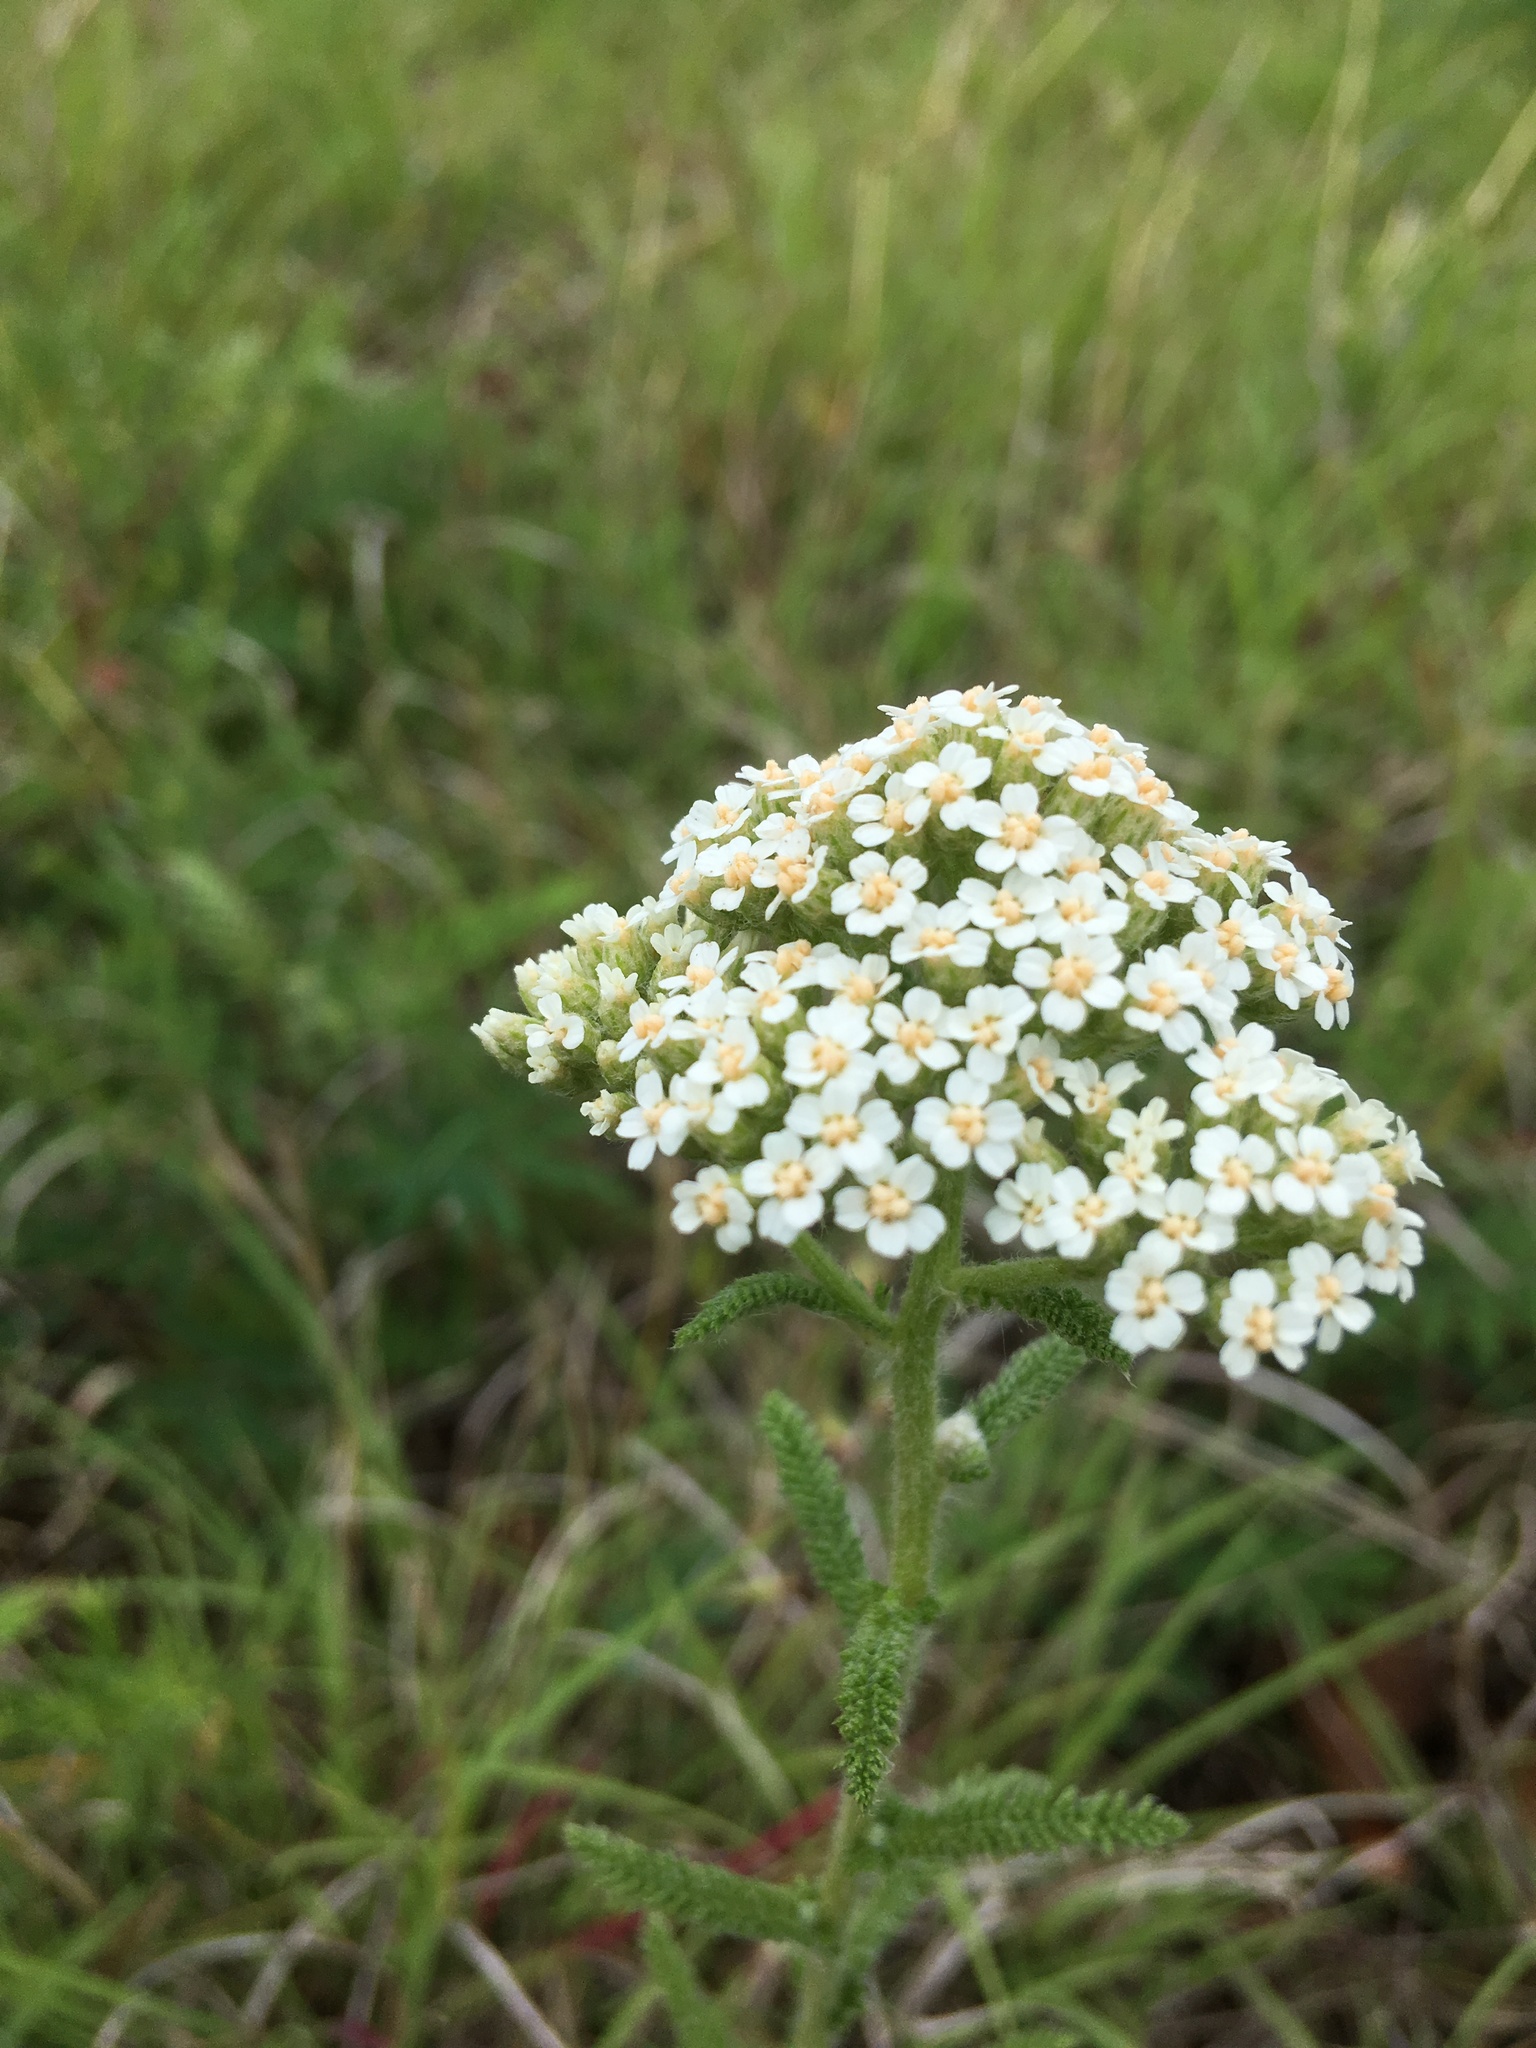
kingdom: Plantae
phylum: Tracheophyta
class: Magnoliopsida
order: Asterales
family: Asteraceae
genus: Achillea
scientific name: Achillea millefolium
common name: Yarrow
